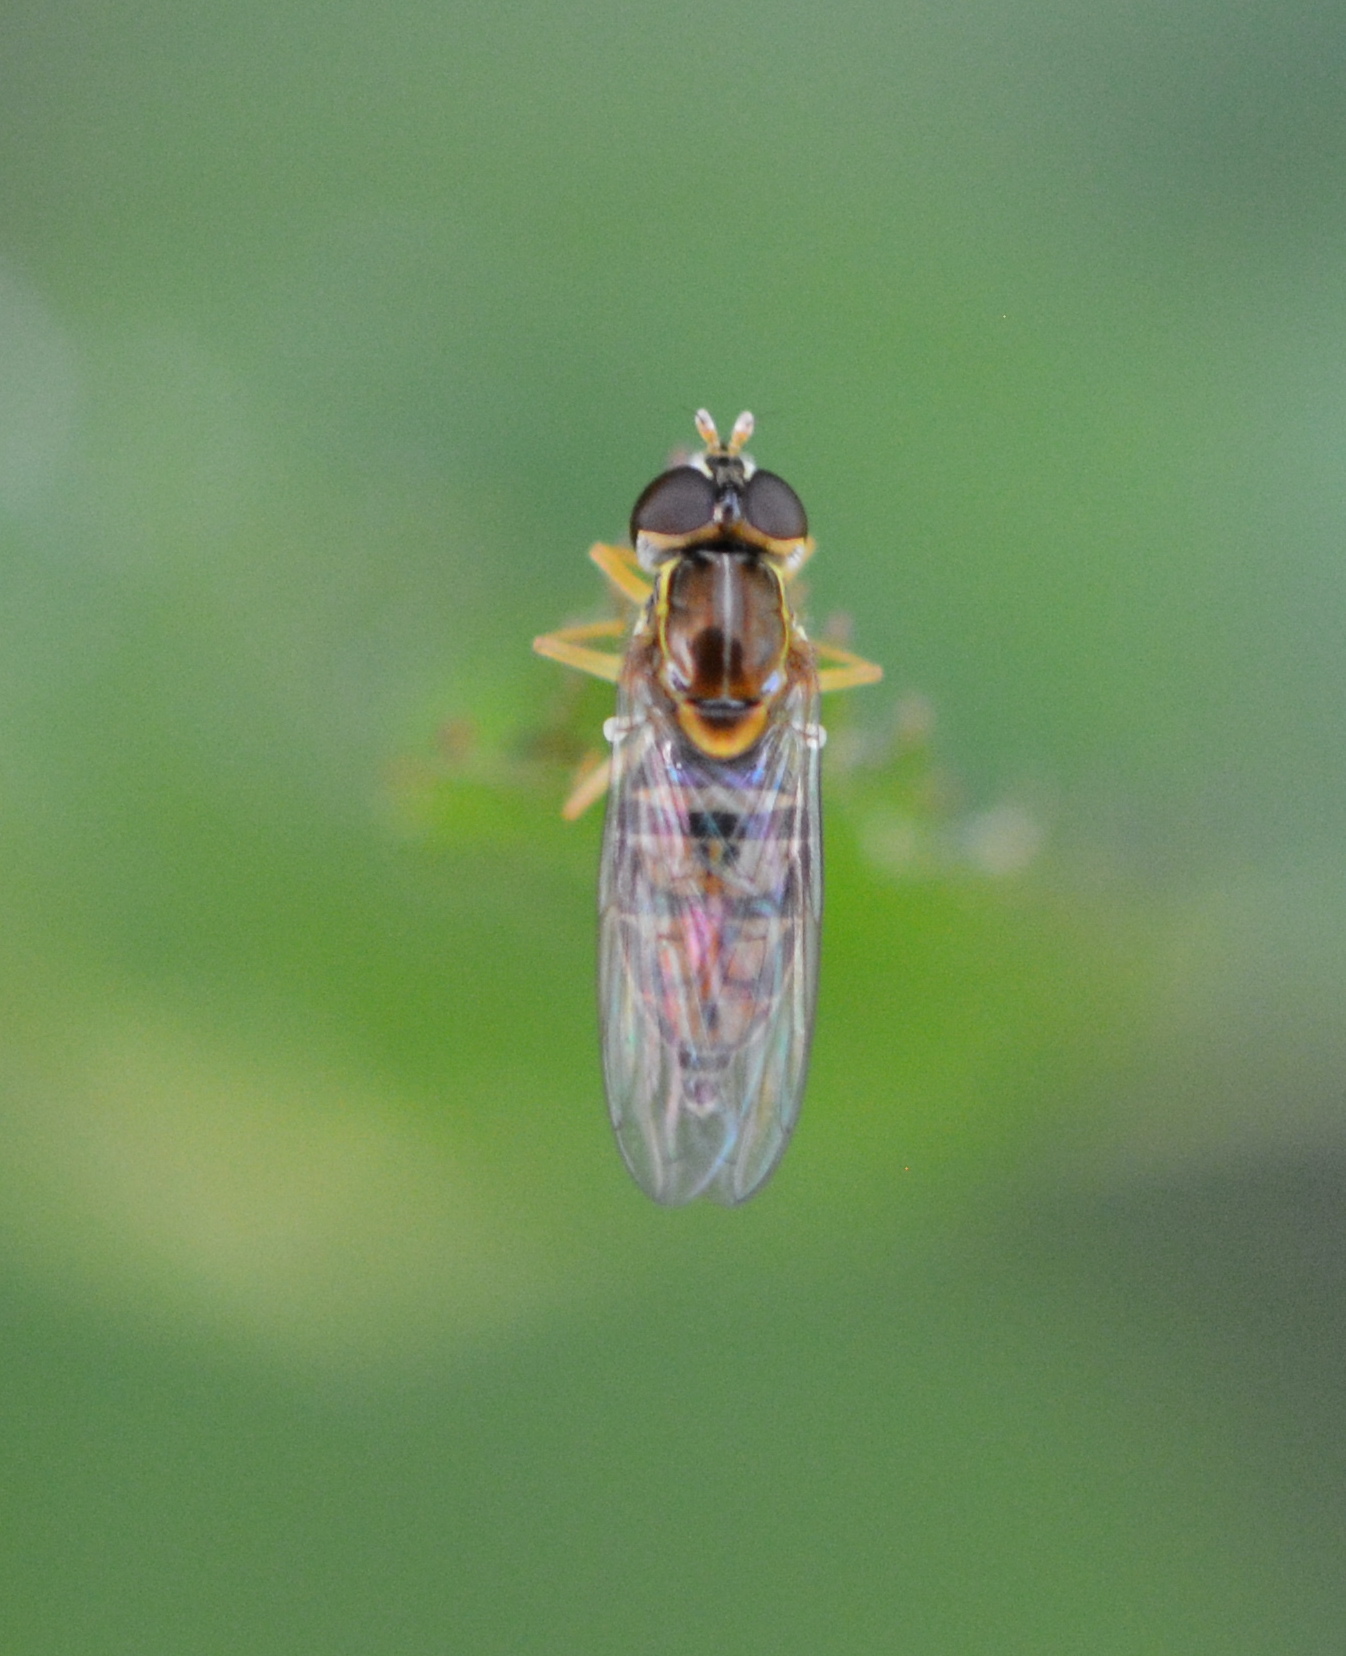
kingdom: Animalia
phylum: Arthropoda
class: Insecta
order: Diptera
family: Syrphidae
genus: Toxomerus
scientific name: Toxomerus marginatus
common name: Syrphid fly
